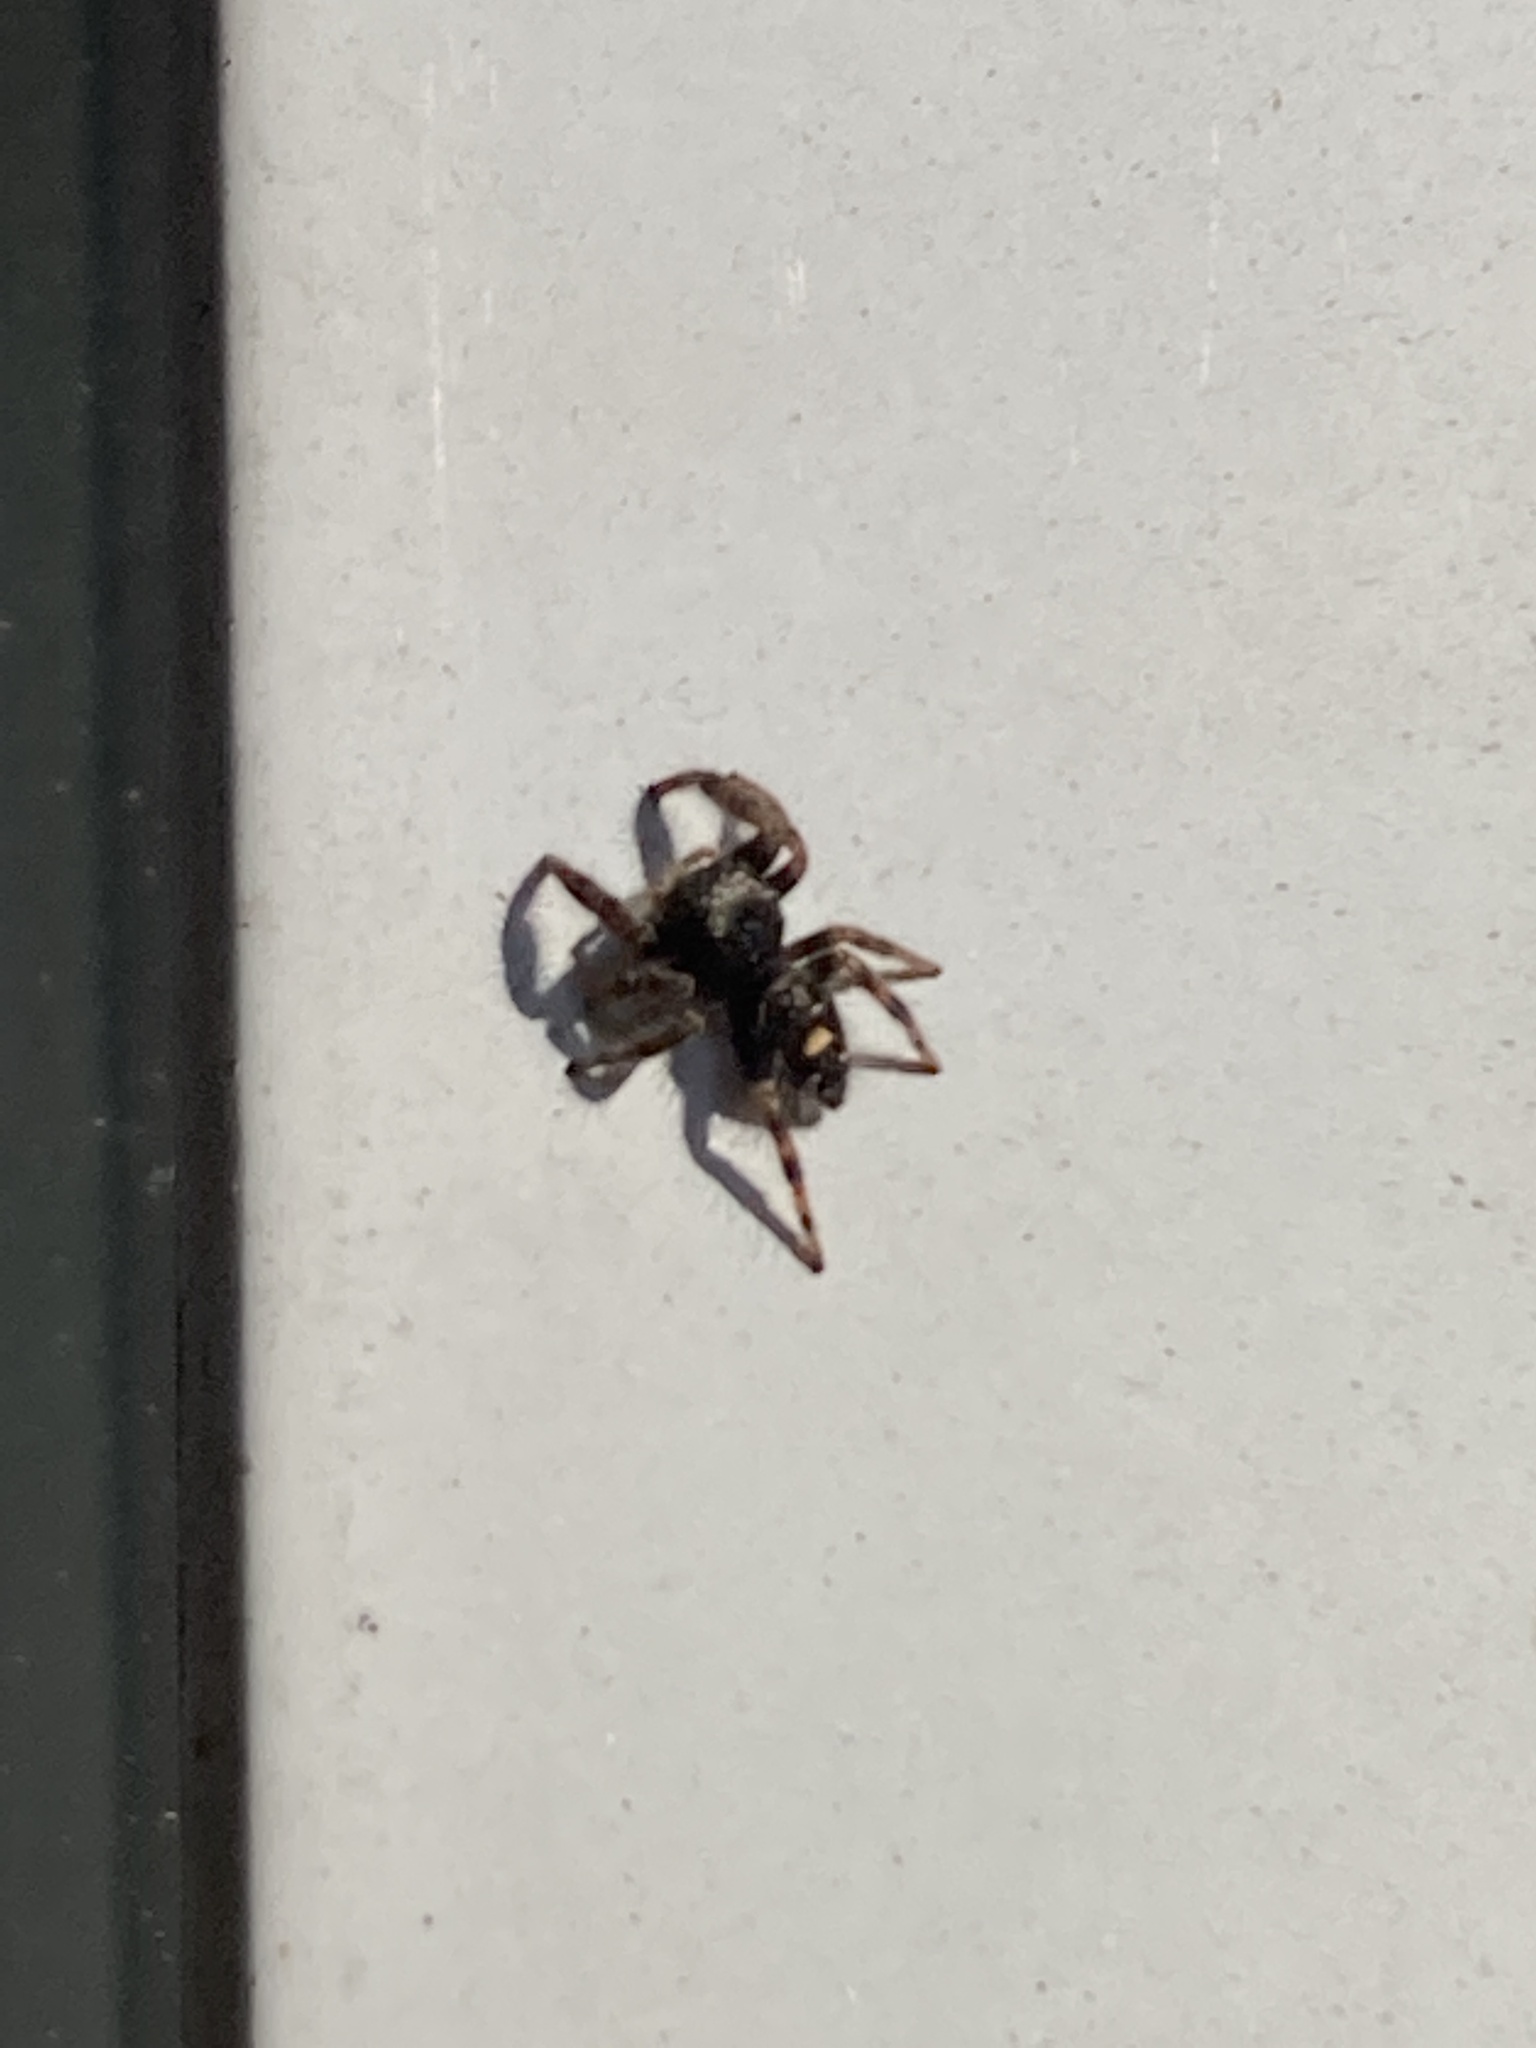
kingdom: Animalia
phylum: Arthropoda
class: Arachnida
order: Araneae
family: Salticidae
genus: Phidippus
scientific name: Phidippus audax
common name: Bold jumper
